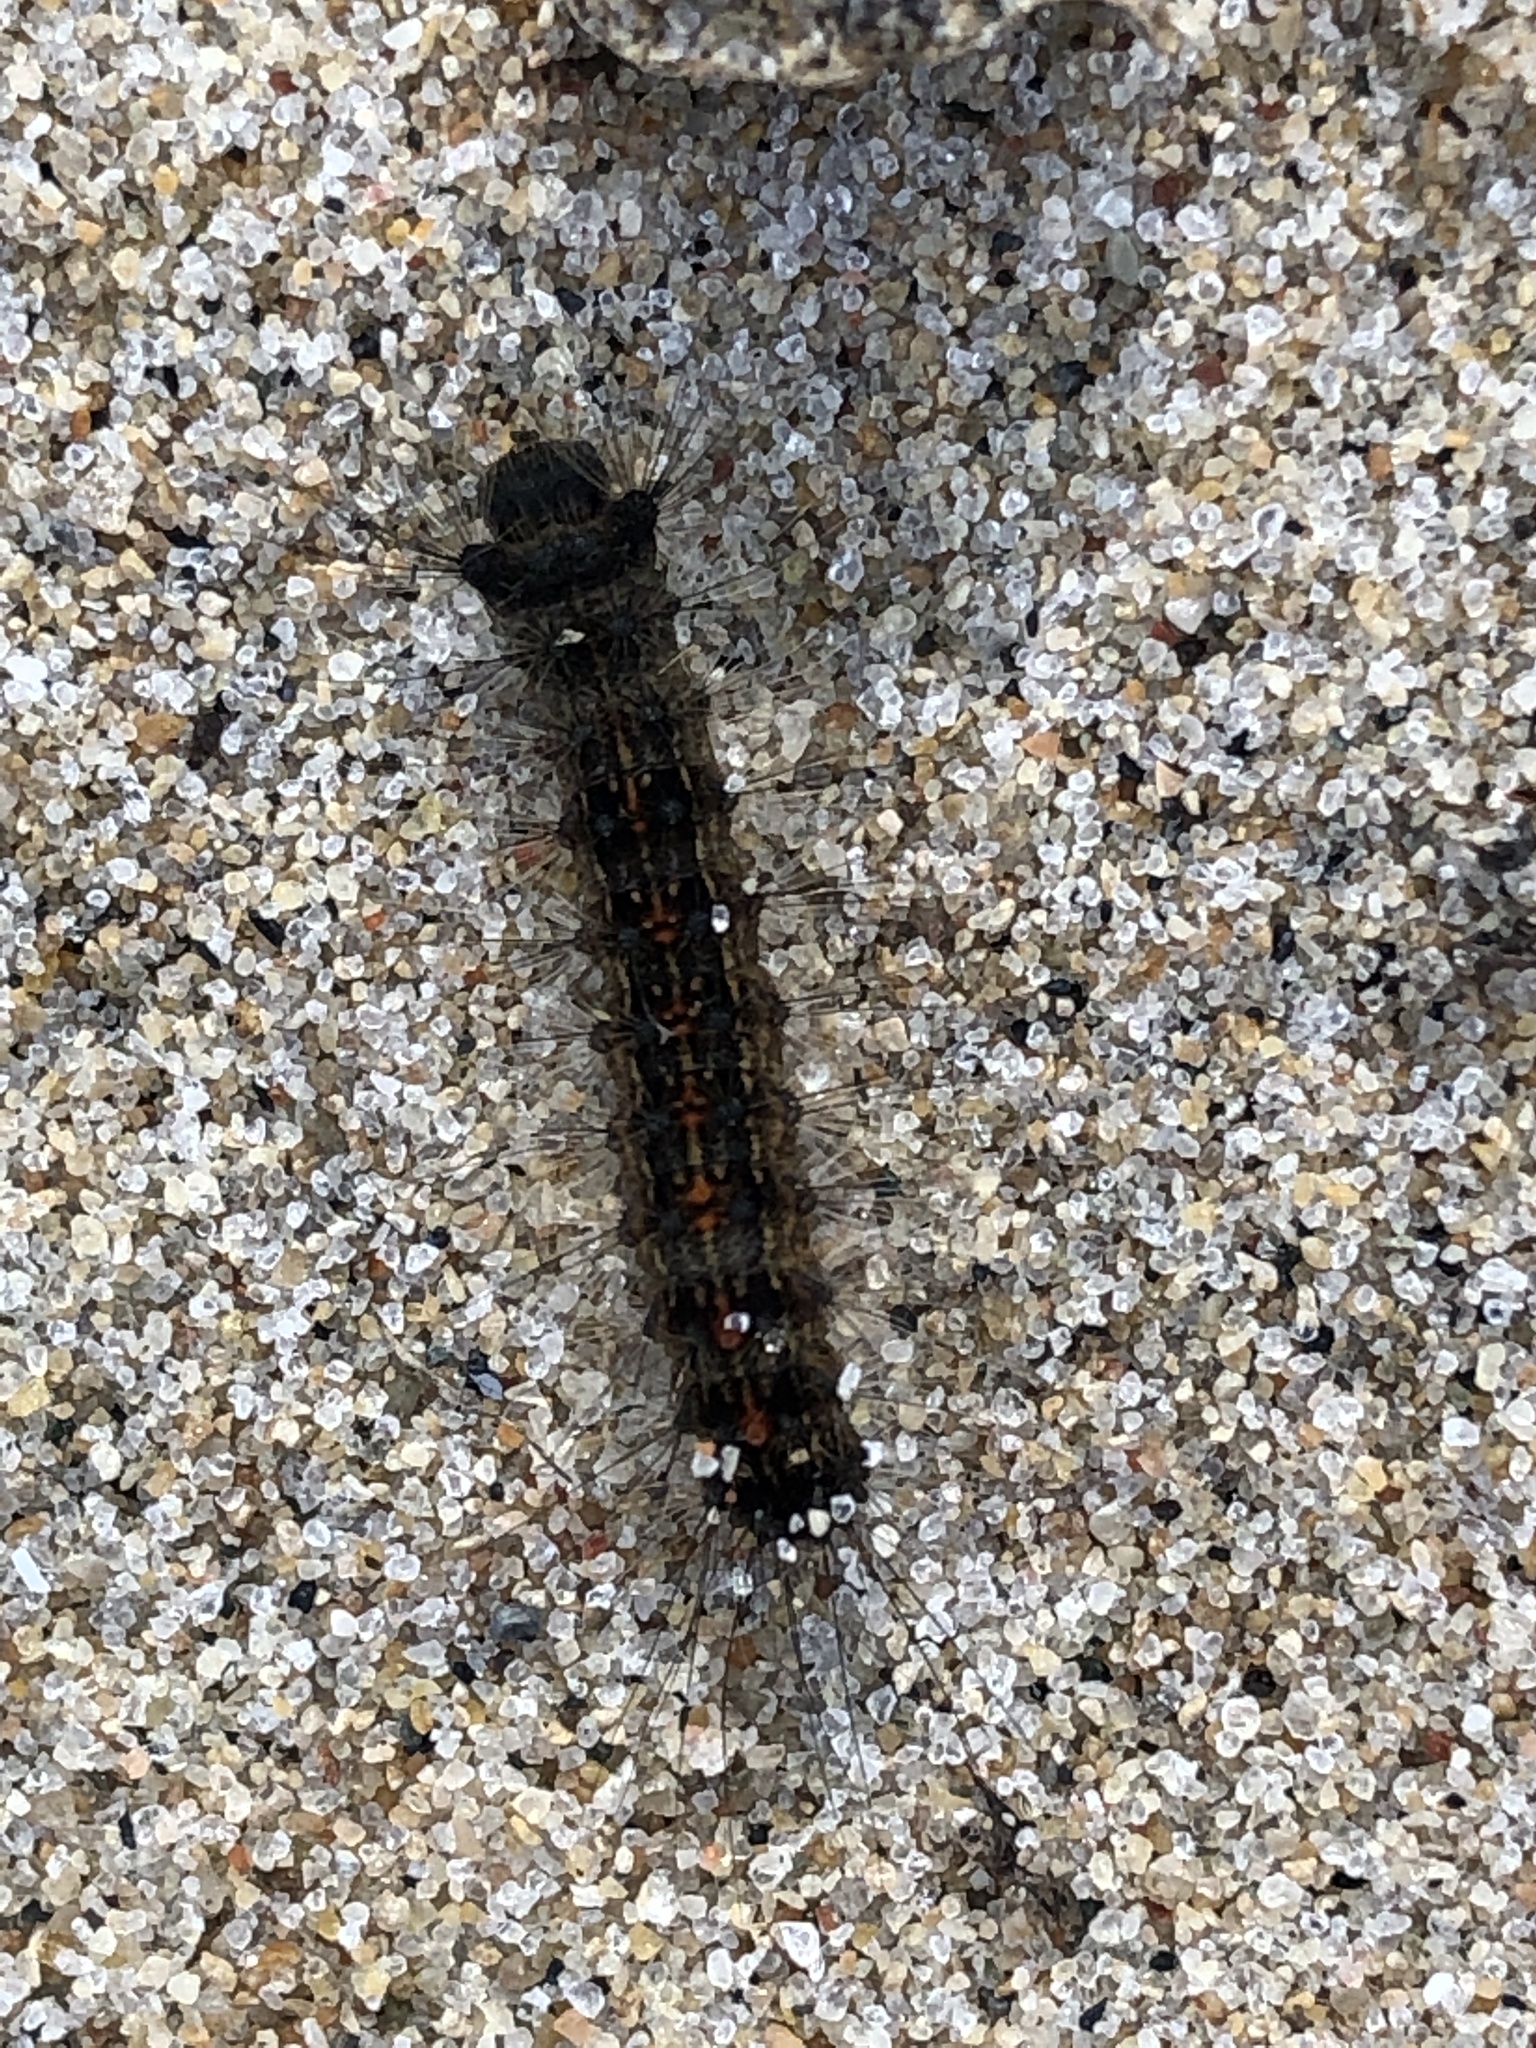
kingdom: Animalia
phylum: Arthropoda
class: Insecta
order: Lepidoptera
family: Erebidae
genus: Lymantria
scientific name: Lymantria dispar
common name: Gypsy moth
